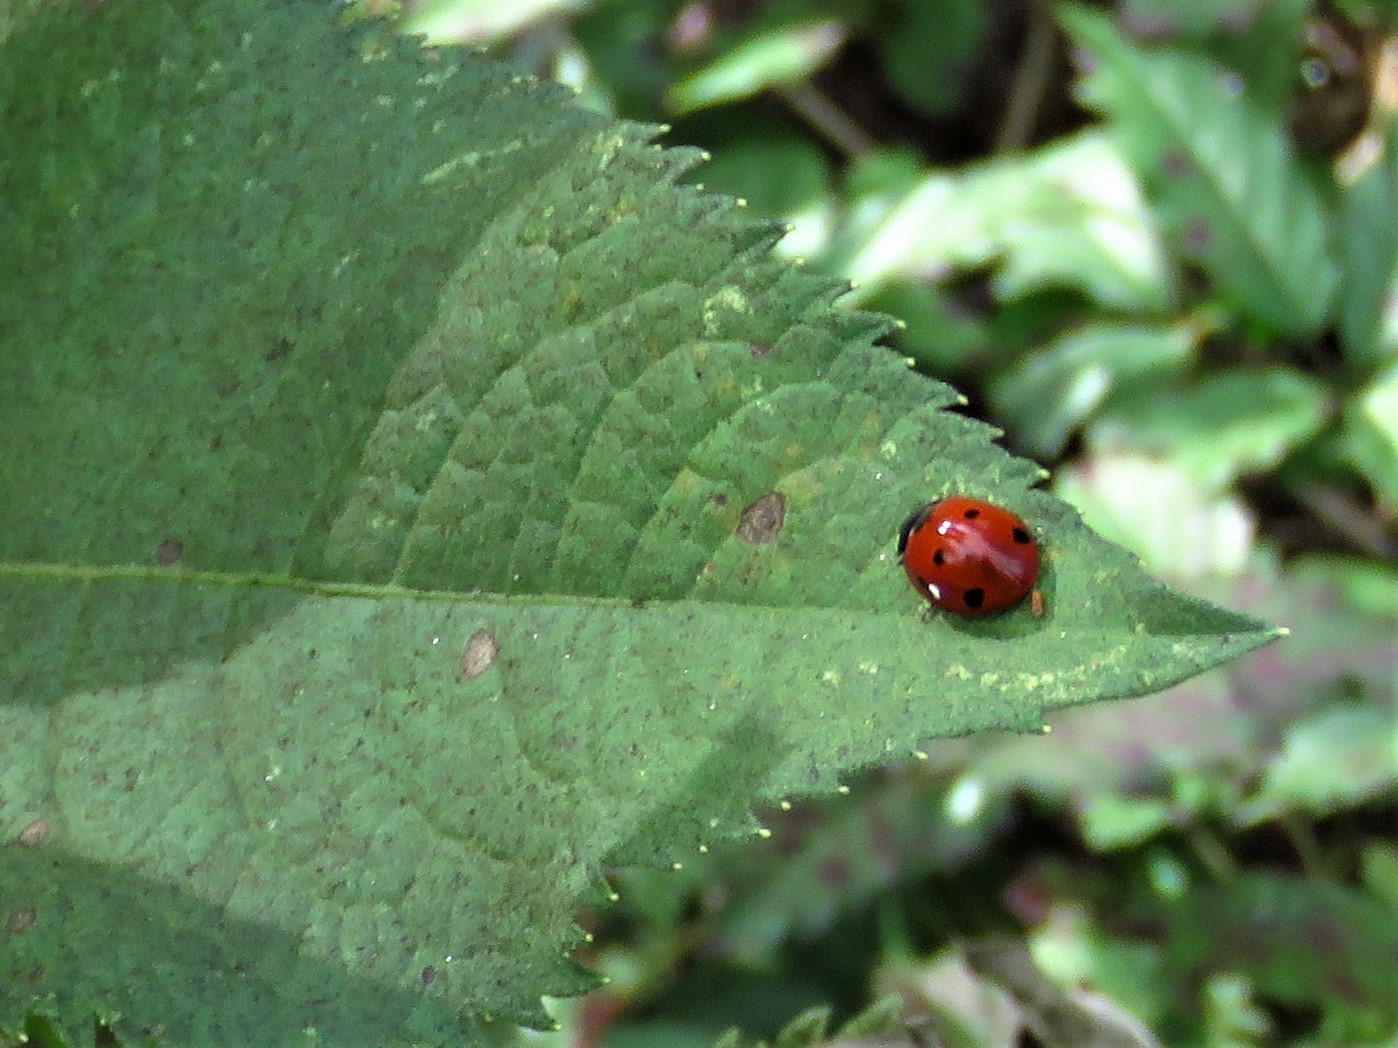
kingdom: Animalia
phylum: Arthropoda
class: Insecta
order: Coleoptera
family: Coccinellidae
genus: Coccinella
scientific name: Coccinella septempunctata
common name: Sevenspotted lady beetle
